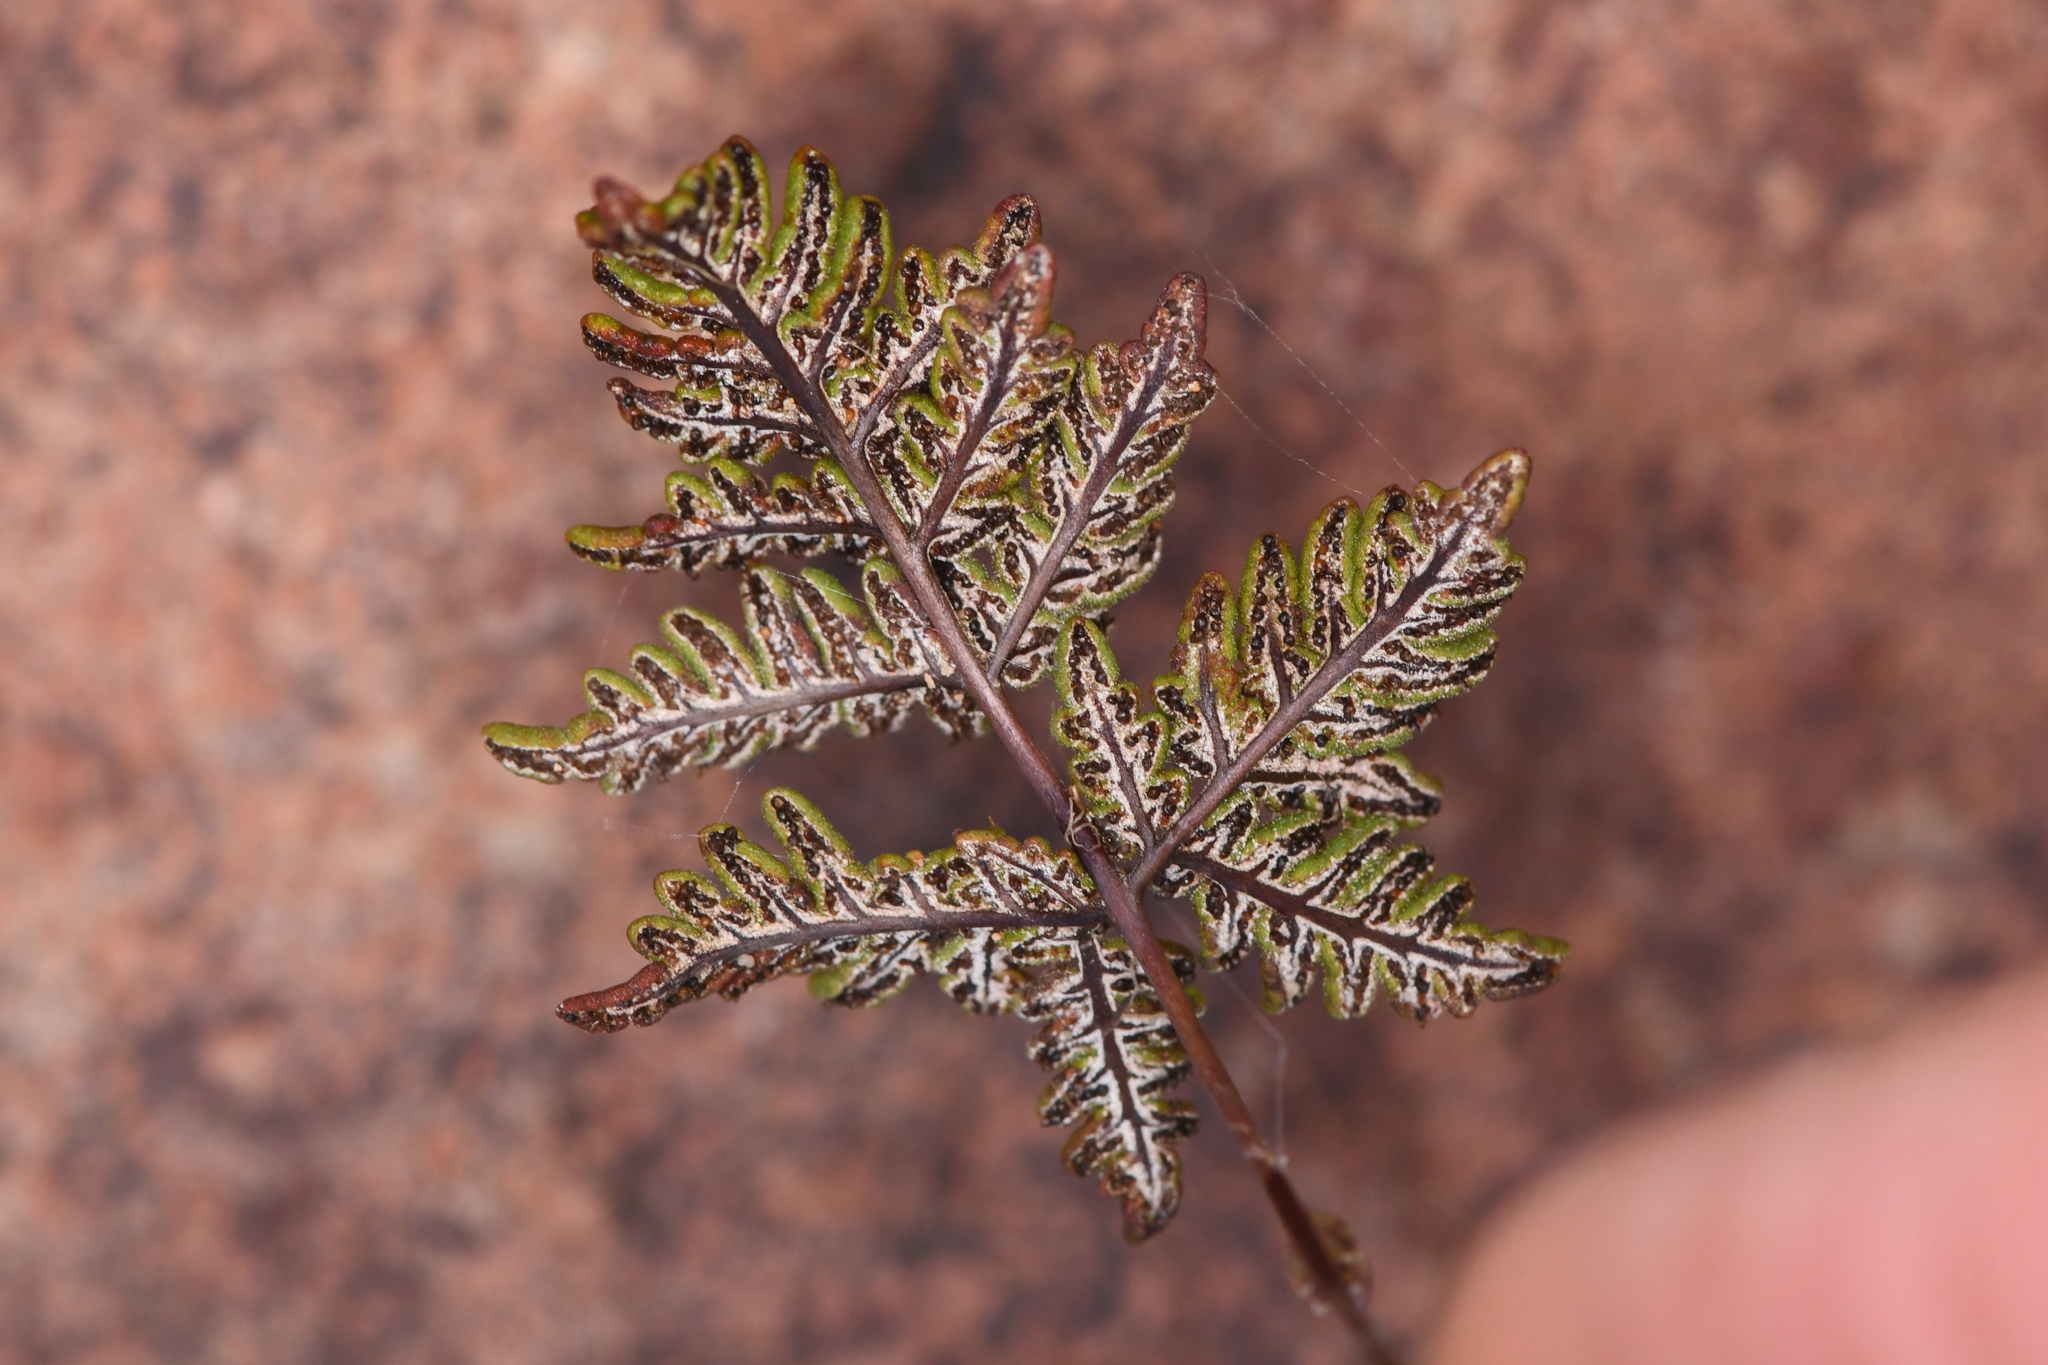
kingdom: Plantae
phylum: Tracheophyta
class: Polypodiopsida
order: Polypodiales
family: Pteridaceae
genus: Notholaena
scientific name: Notholaena californica
